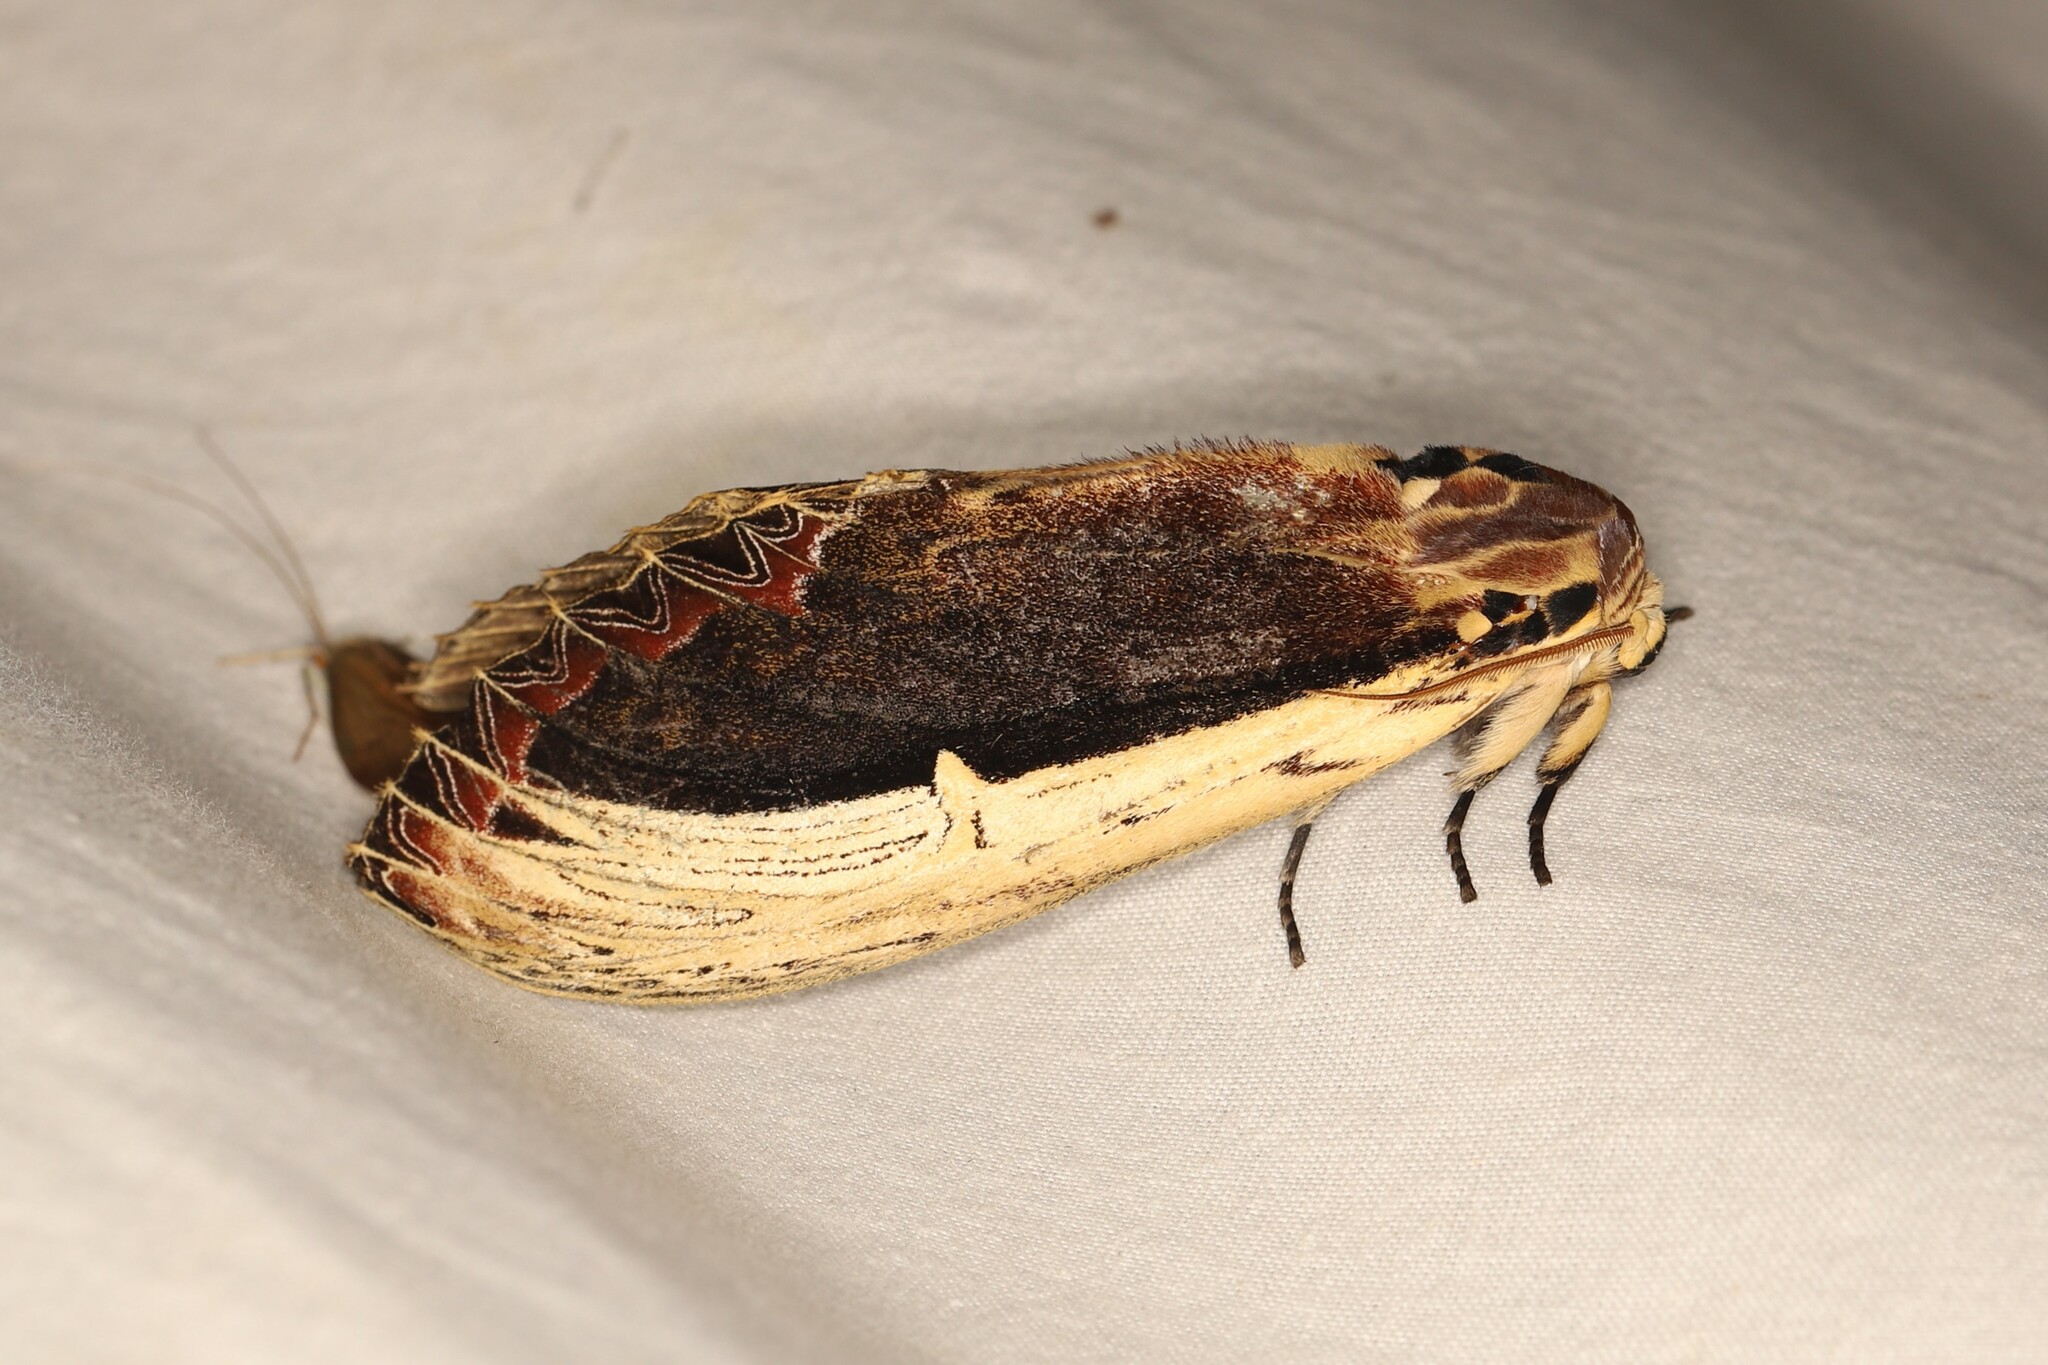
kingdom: Animalia
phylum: Arthropoda
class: Insecta
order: Lepidoptera
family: Notodontidae
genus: Truncaptera
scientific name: Truncaptera gigantea
